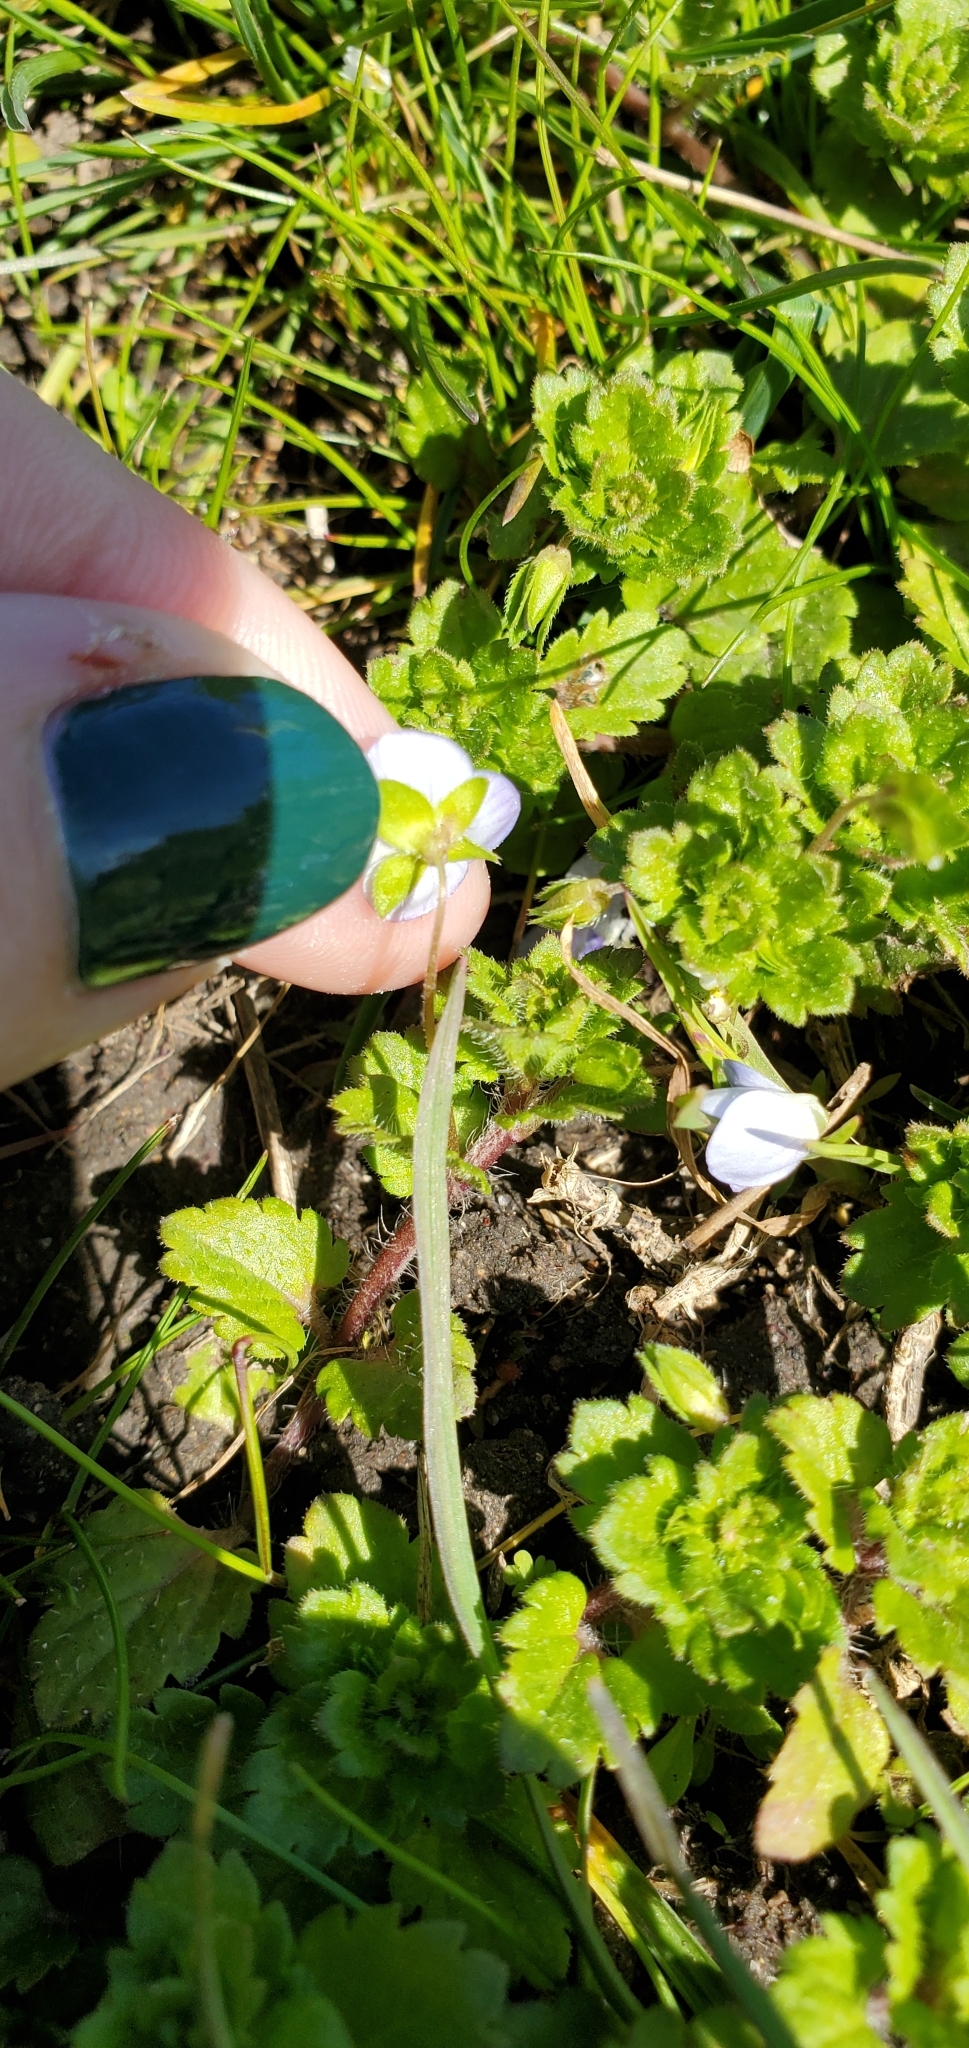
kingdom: Plantae
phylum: Tracheophyta
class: Magnoliopsida
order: Lamiales
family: Plantaginaceae
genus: Veronica
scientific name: Veronica persica
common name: Common field-speedwell
